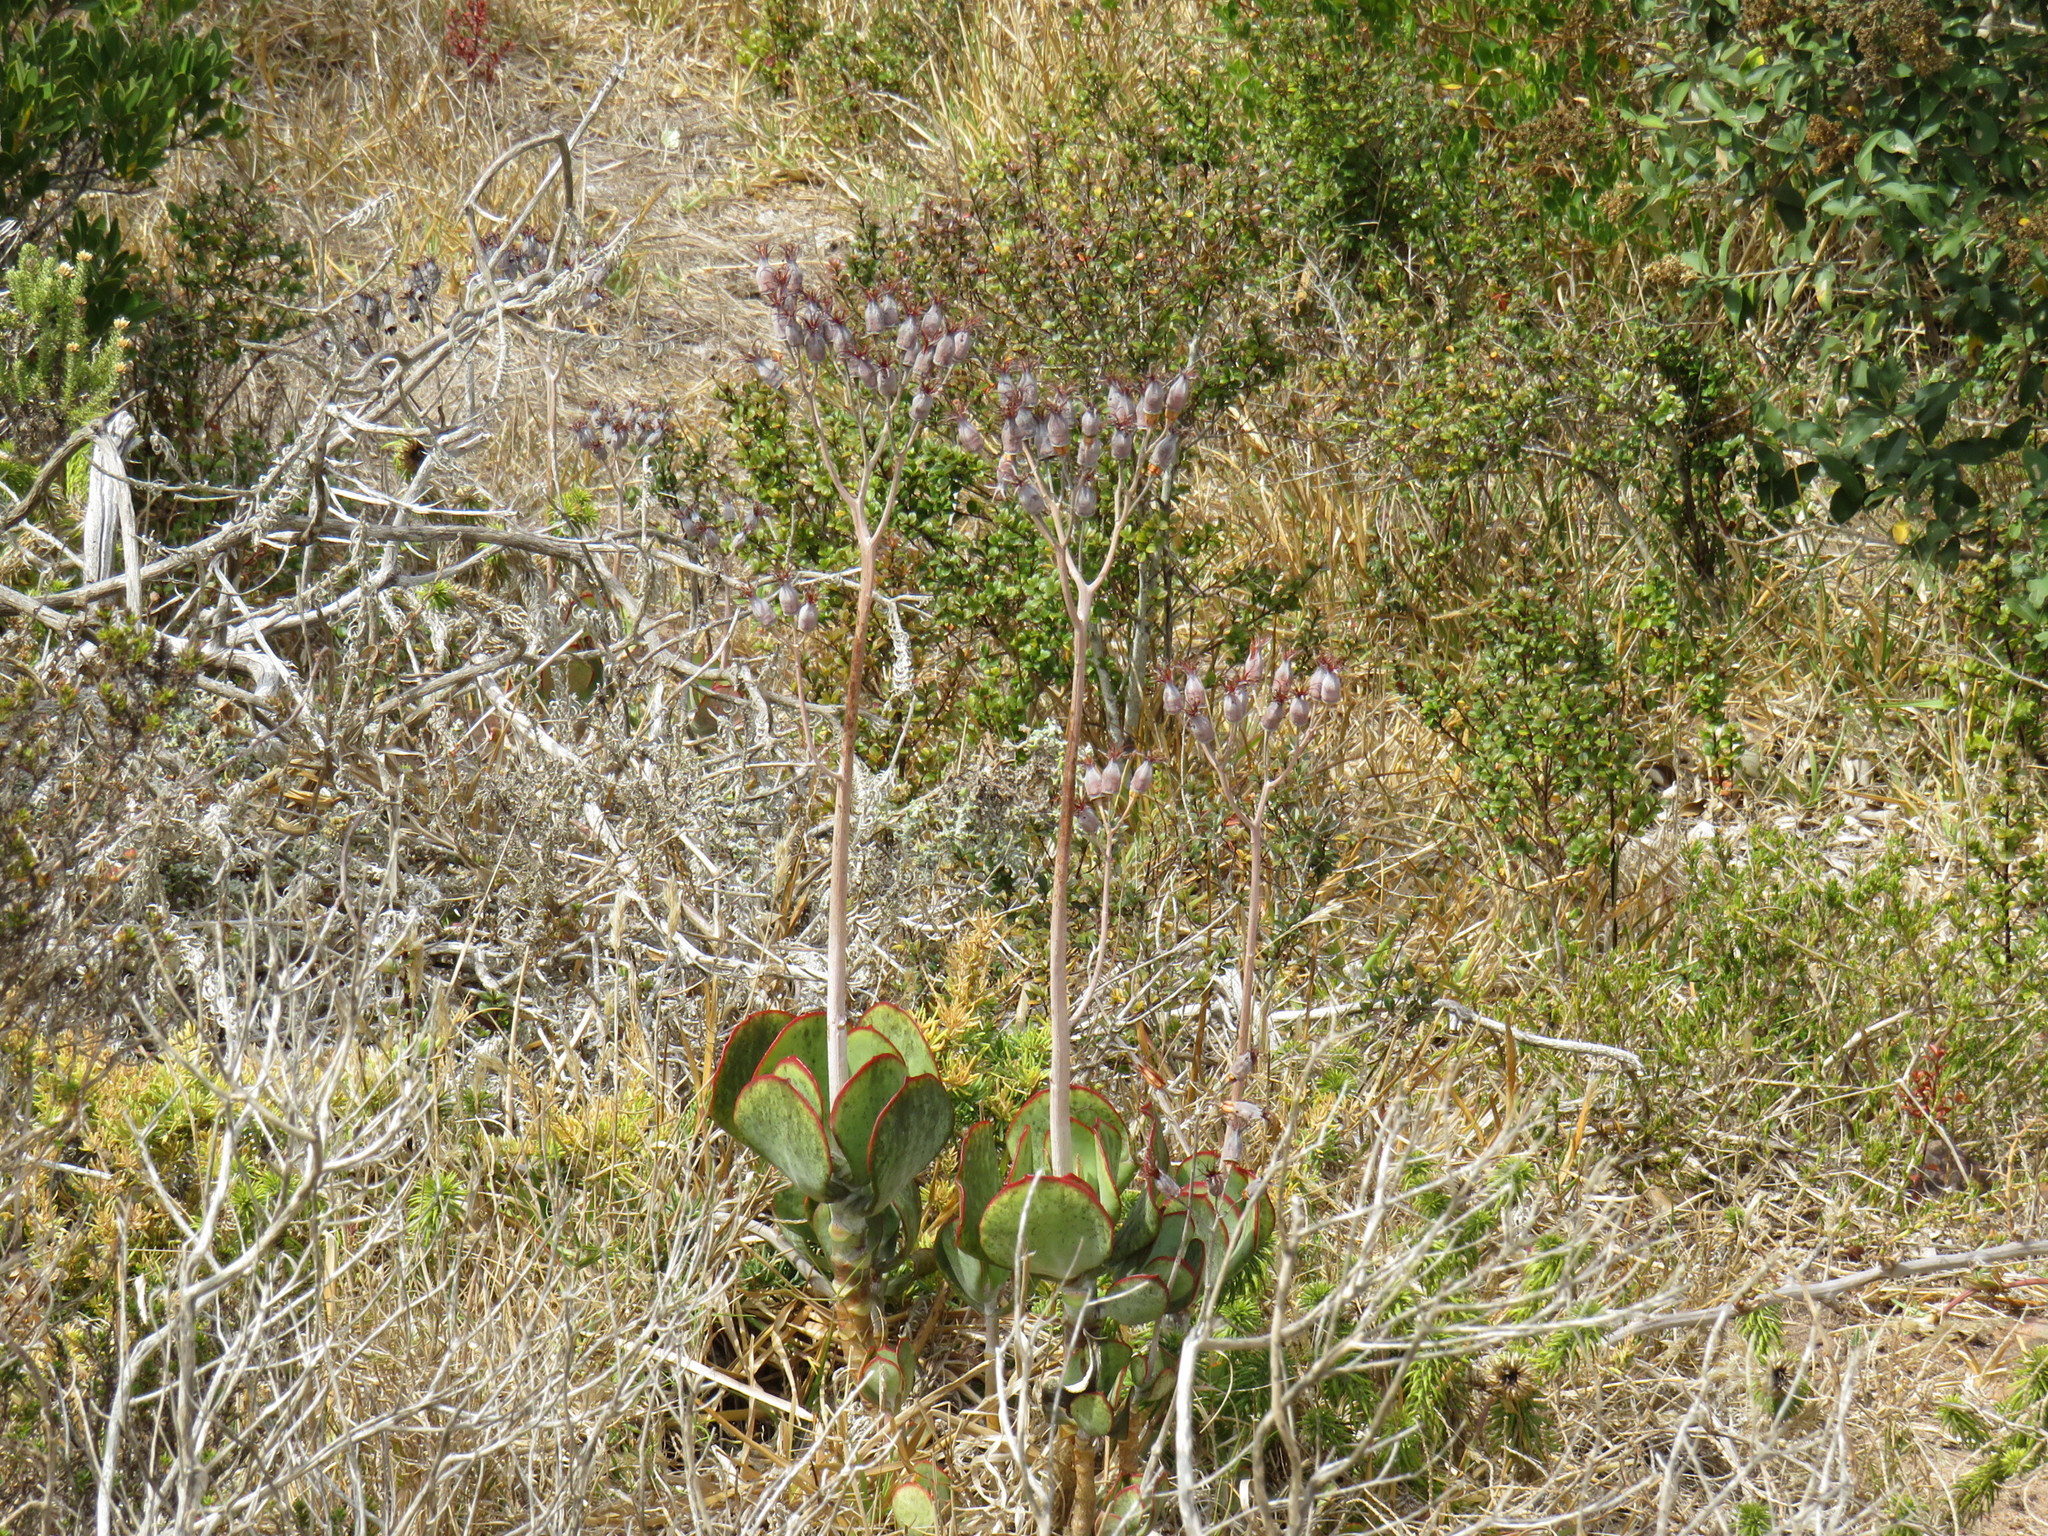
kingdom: Plantae
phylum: Tracheophyta
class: Magnoliopsida
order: Saxifragales
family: Crassulaceae
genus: Cotyledon
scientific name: Cotyledon orbiculata
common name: Pig's ear
